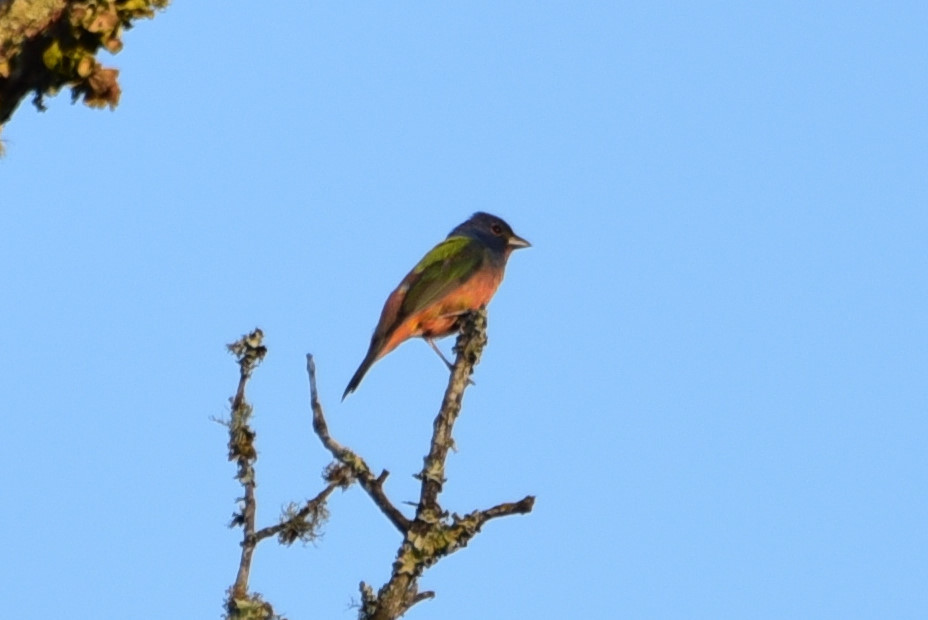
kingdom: Animalia
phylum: Chordata
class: Aves
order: Passeriformes
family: Cardinalidae
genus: Passerina
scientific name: Passerina ciris
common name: Painted bunting
